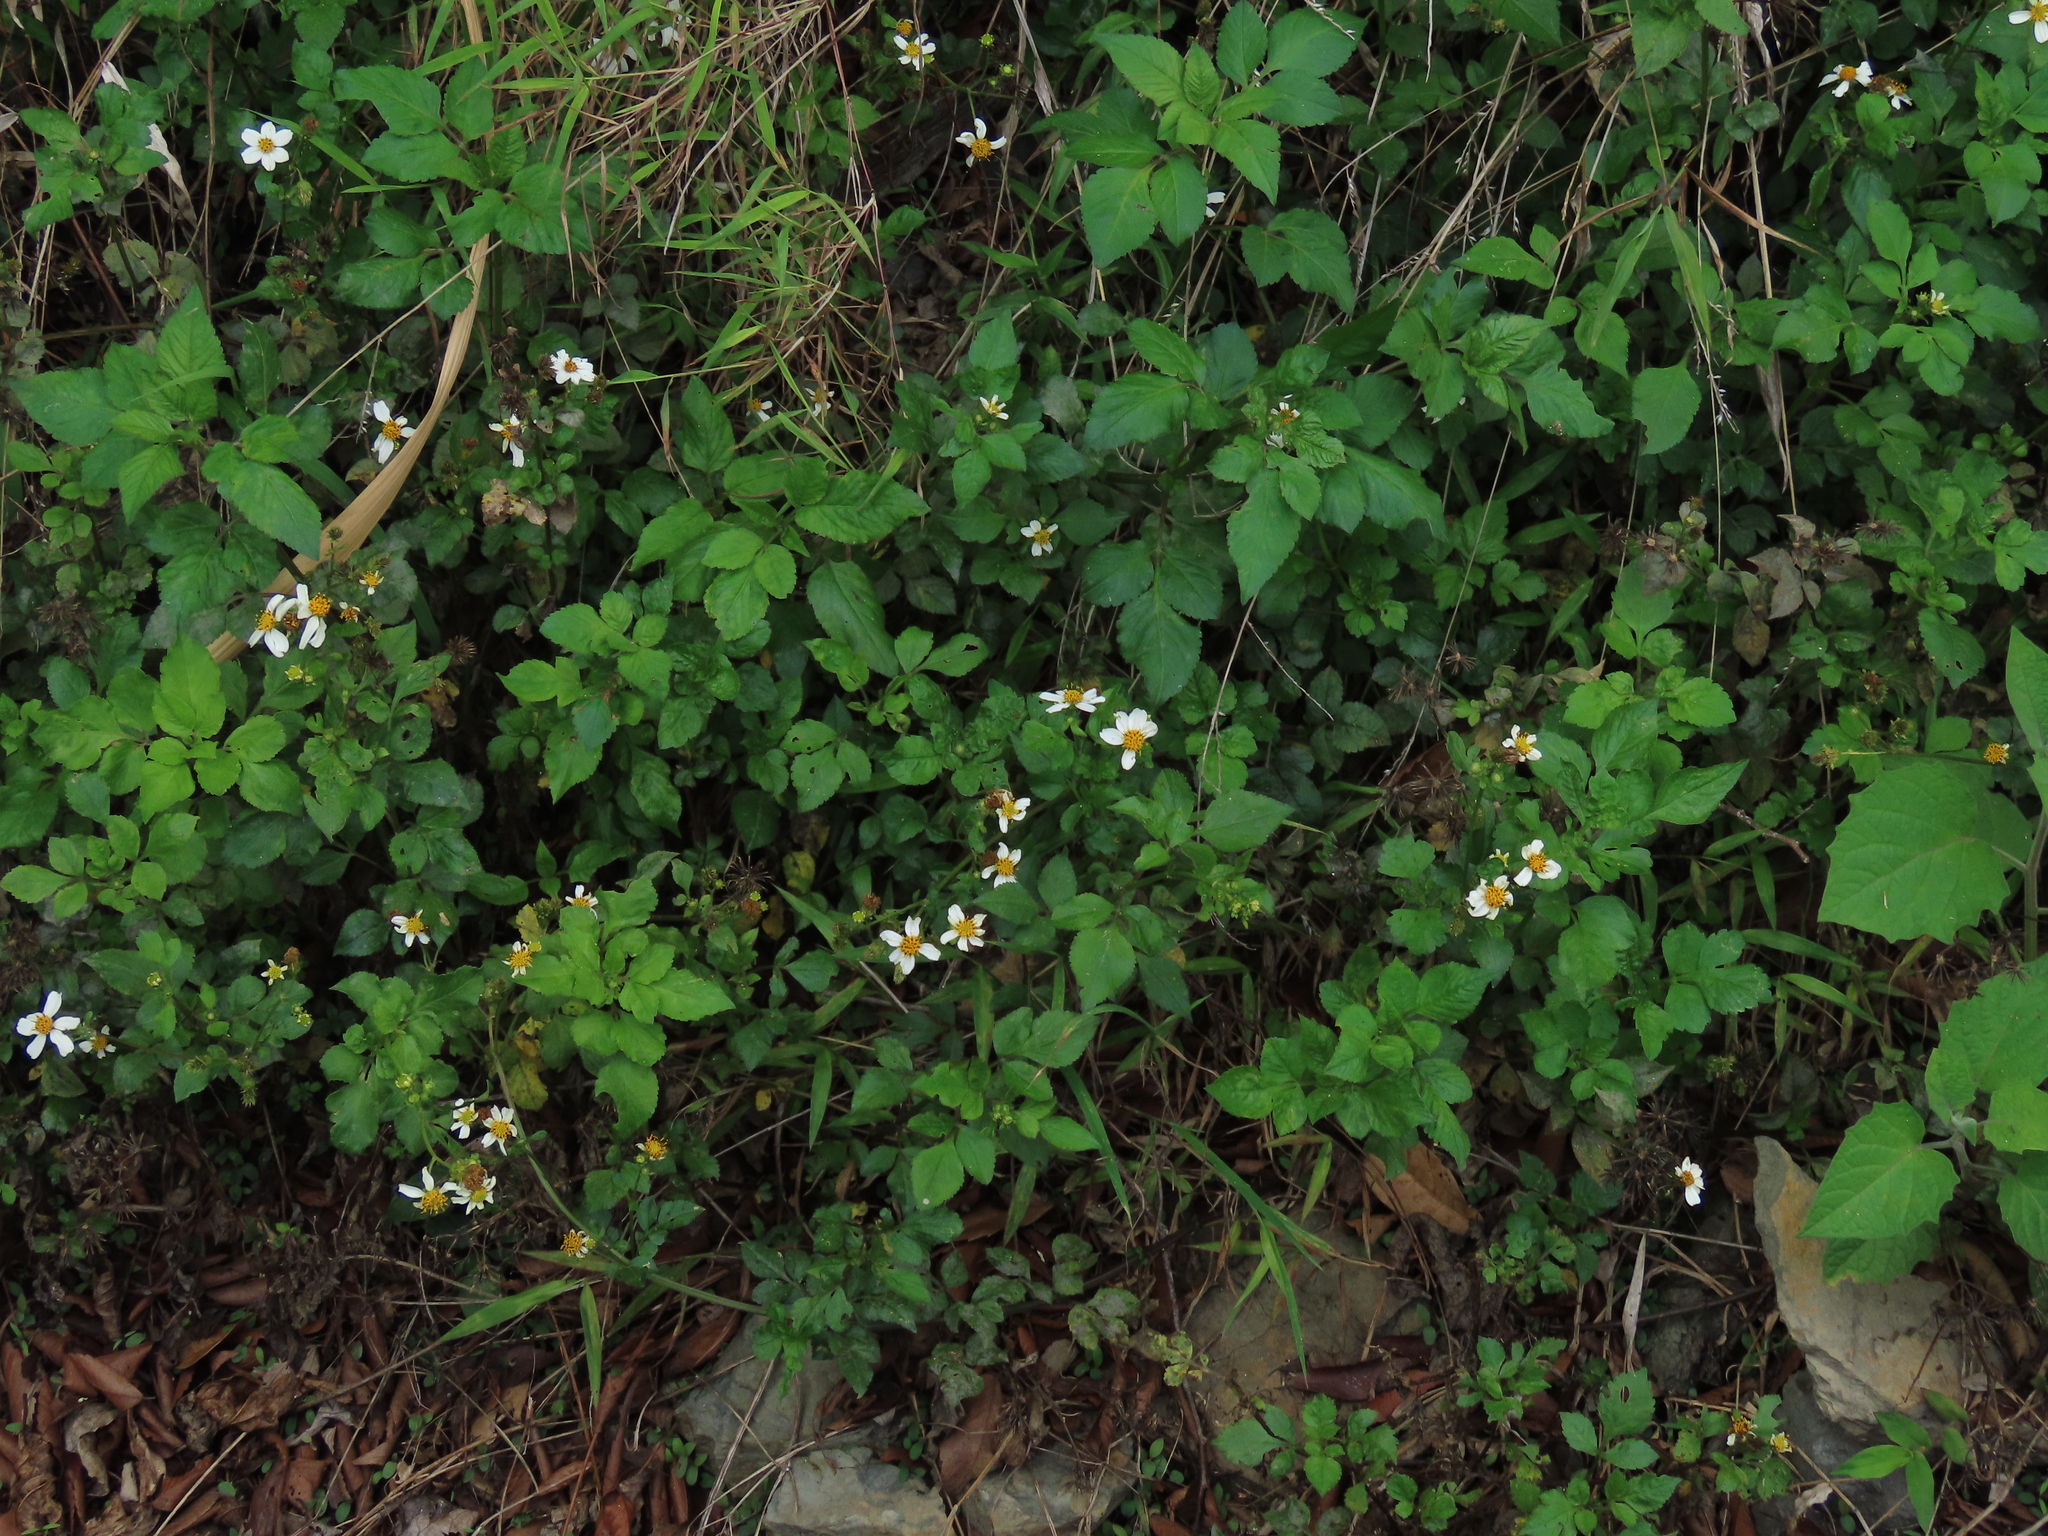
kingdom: Plantae
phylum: Tracheophyta
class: Magnoliopsida
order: Asterales
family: Asteraceae
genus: Bidens
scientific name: Bidens alba
